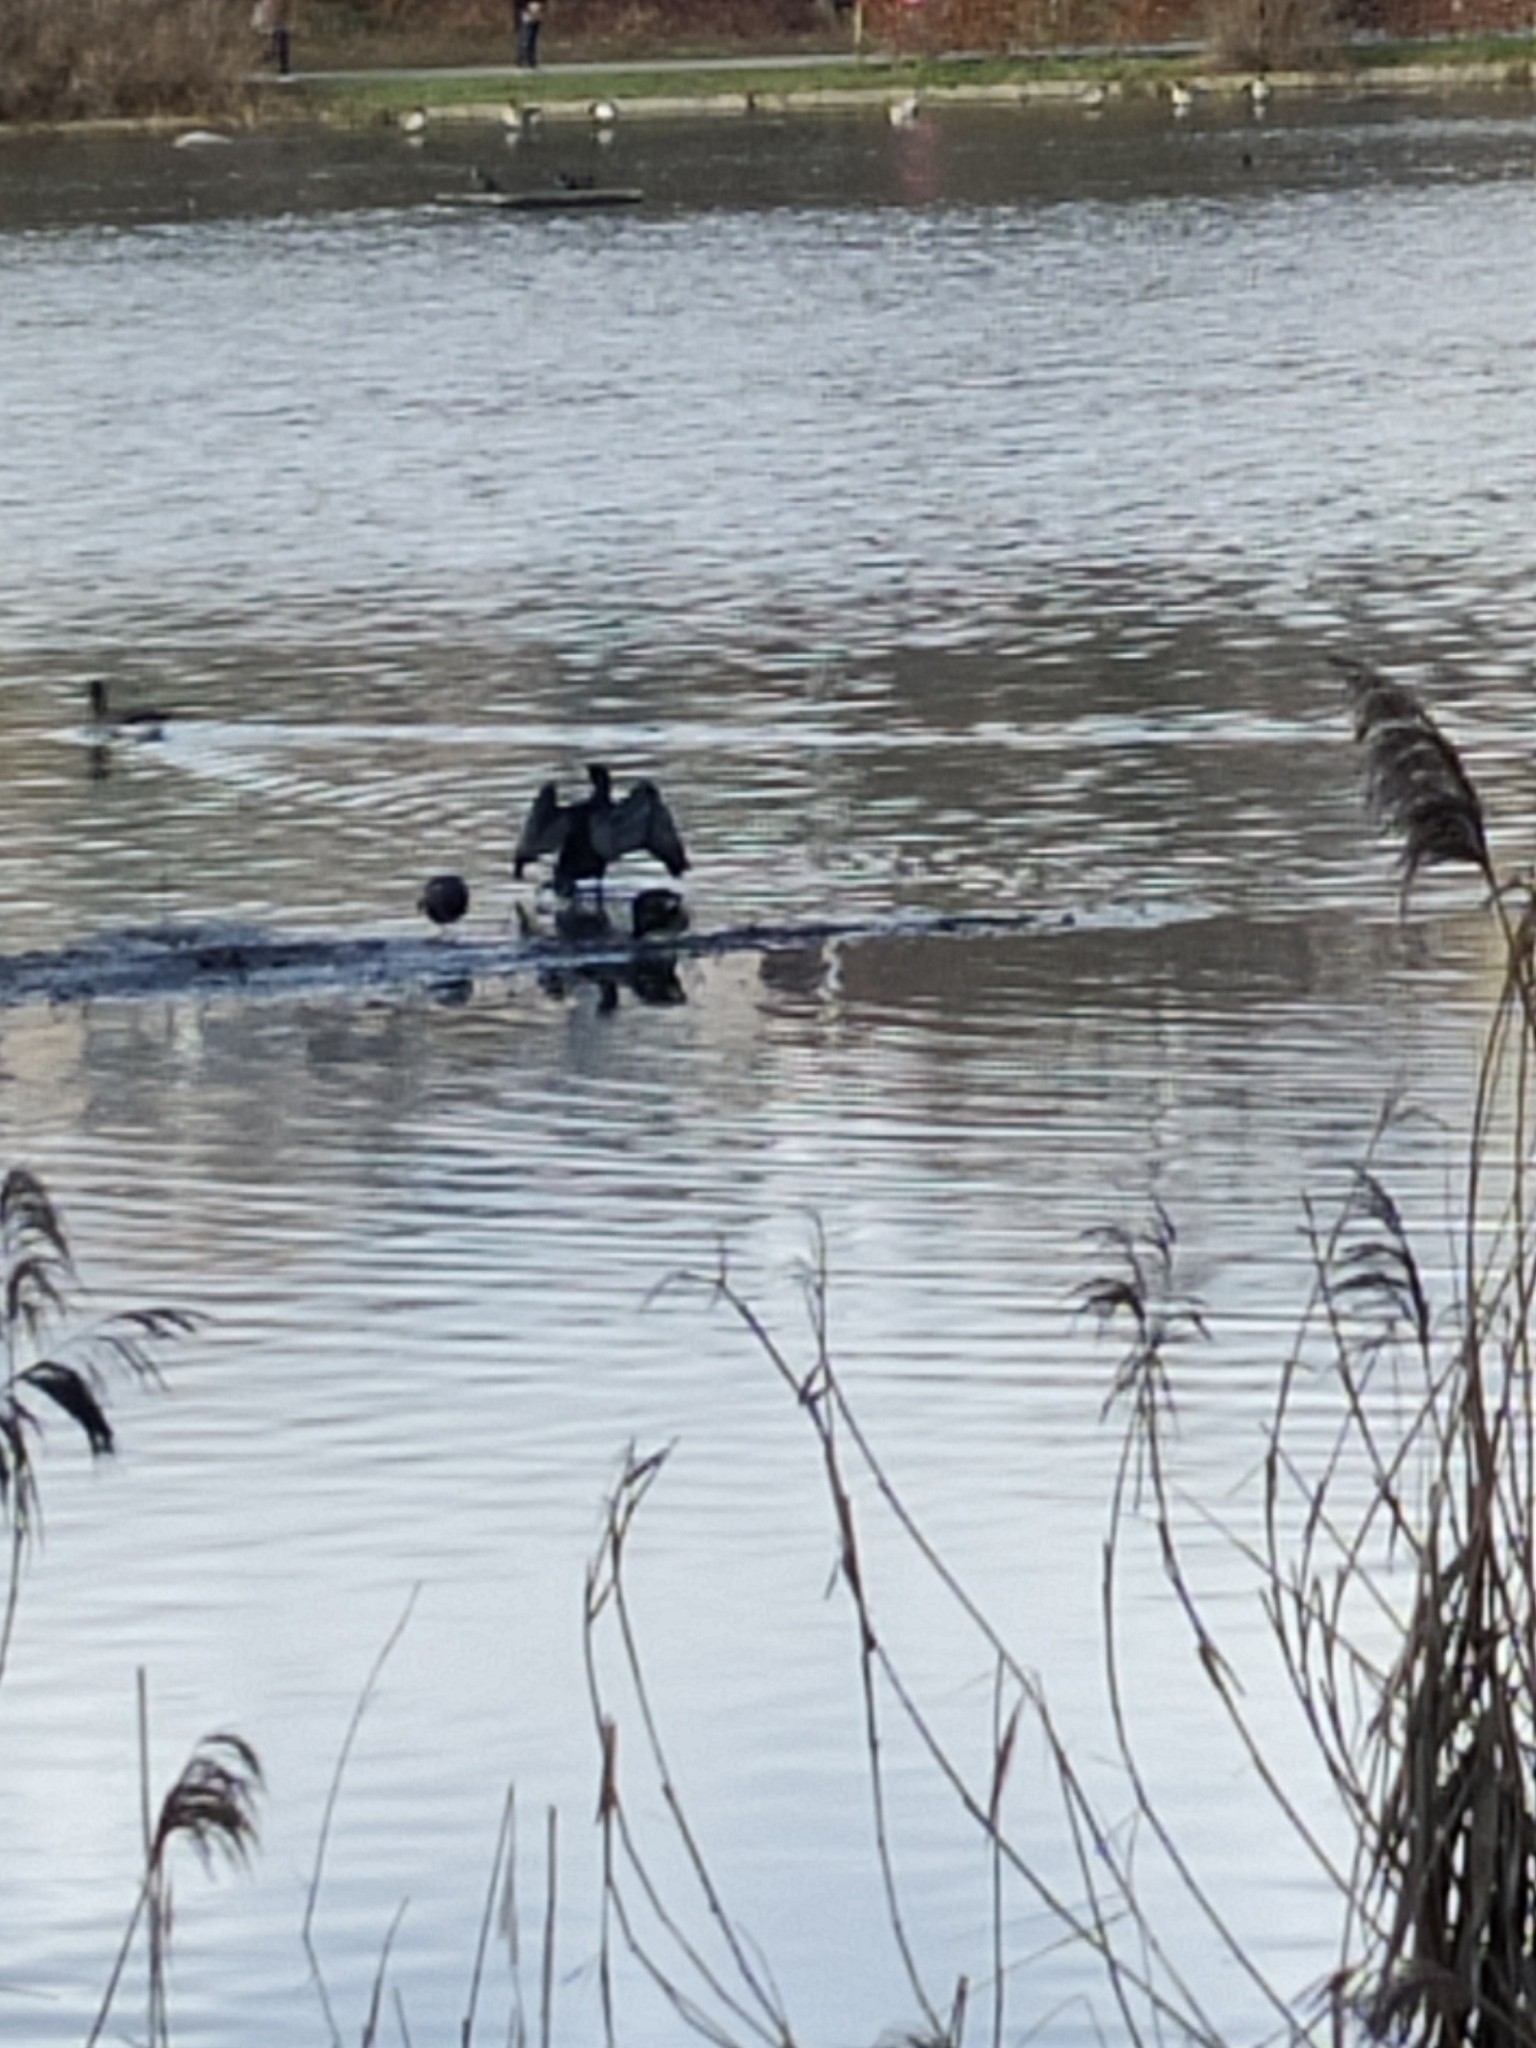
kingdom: Animalia
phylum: Chordata
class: Aves
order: Suliformes
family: Phalacrocoracidae
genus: Phalacrocorax
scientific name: Phalacrocorax carbo
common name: Great cormorant
